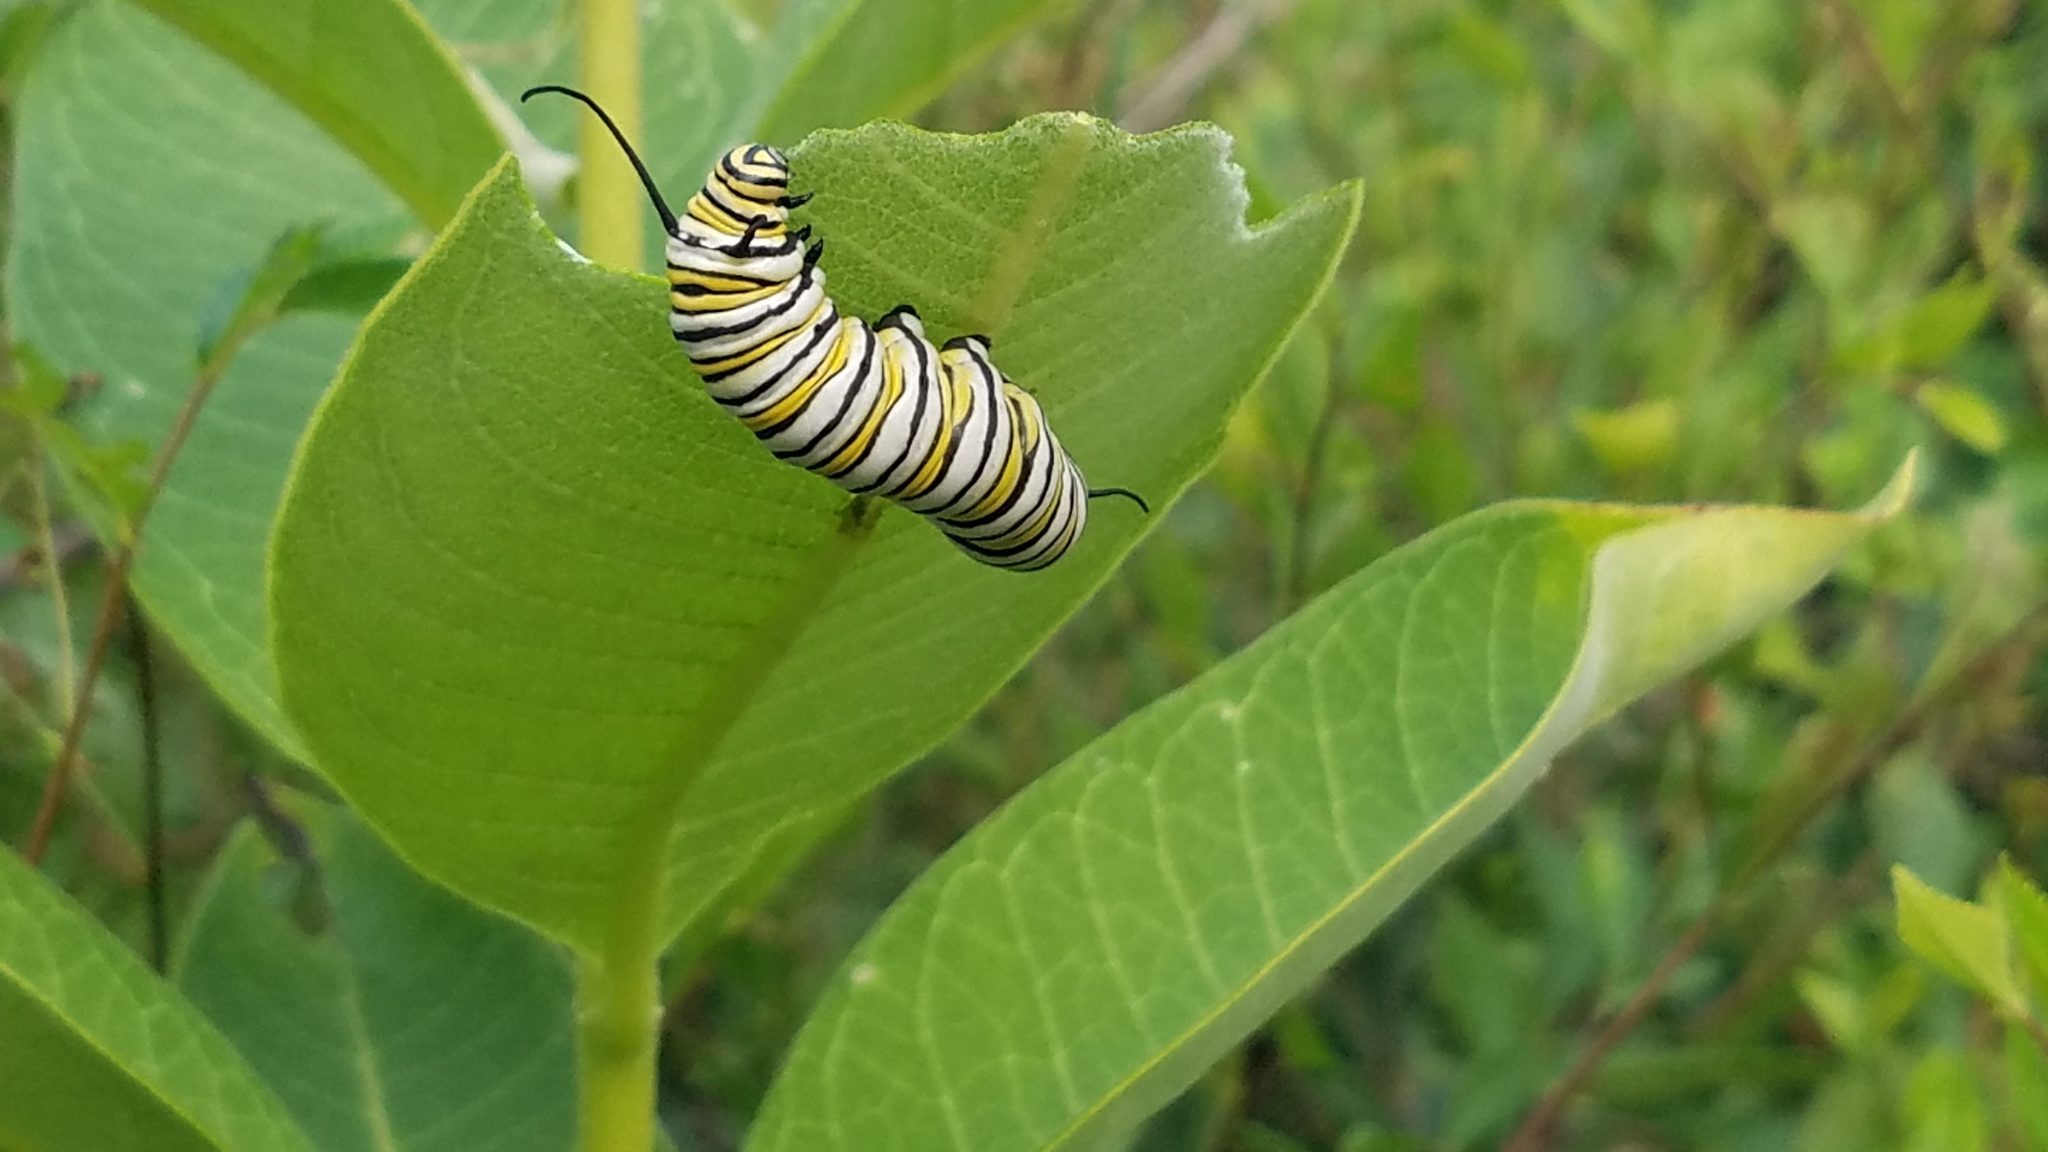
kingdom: Animalia
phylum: Arthropoda
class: Insecta
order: Lepidoptera
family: Nymphalidae
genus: Danaus
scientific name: Danaus plexippus
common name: Monarch
